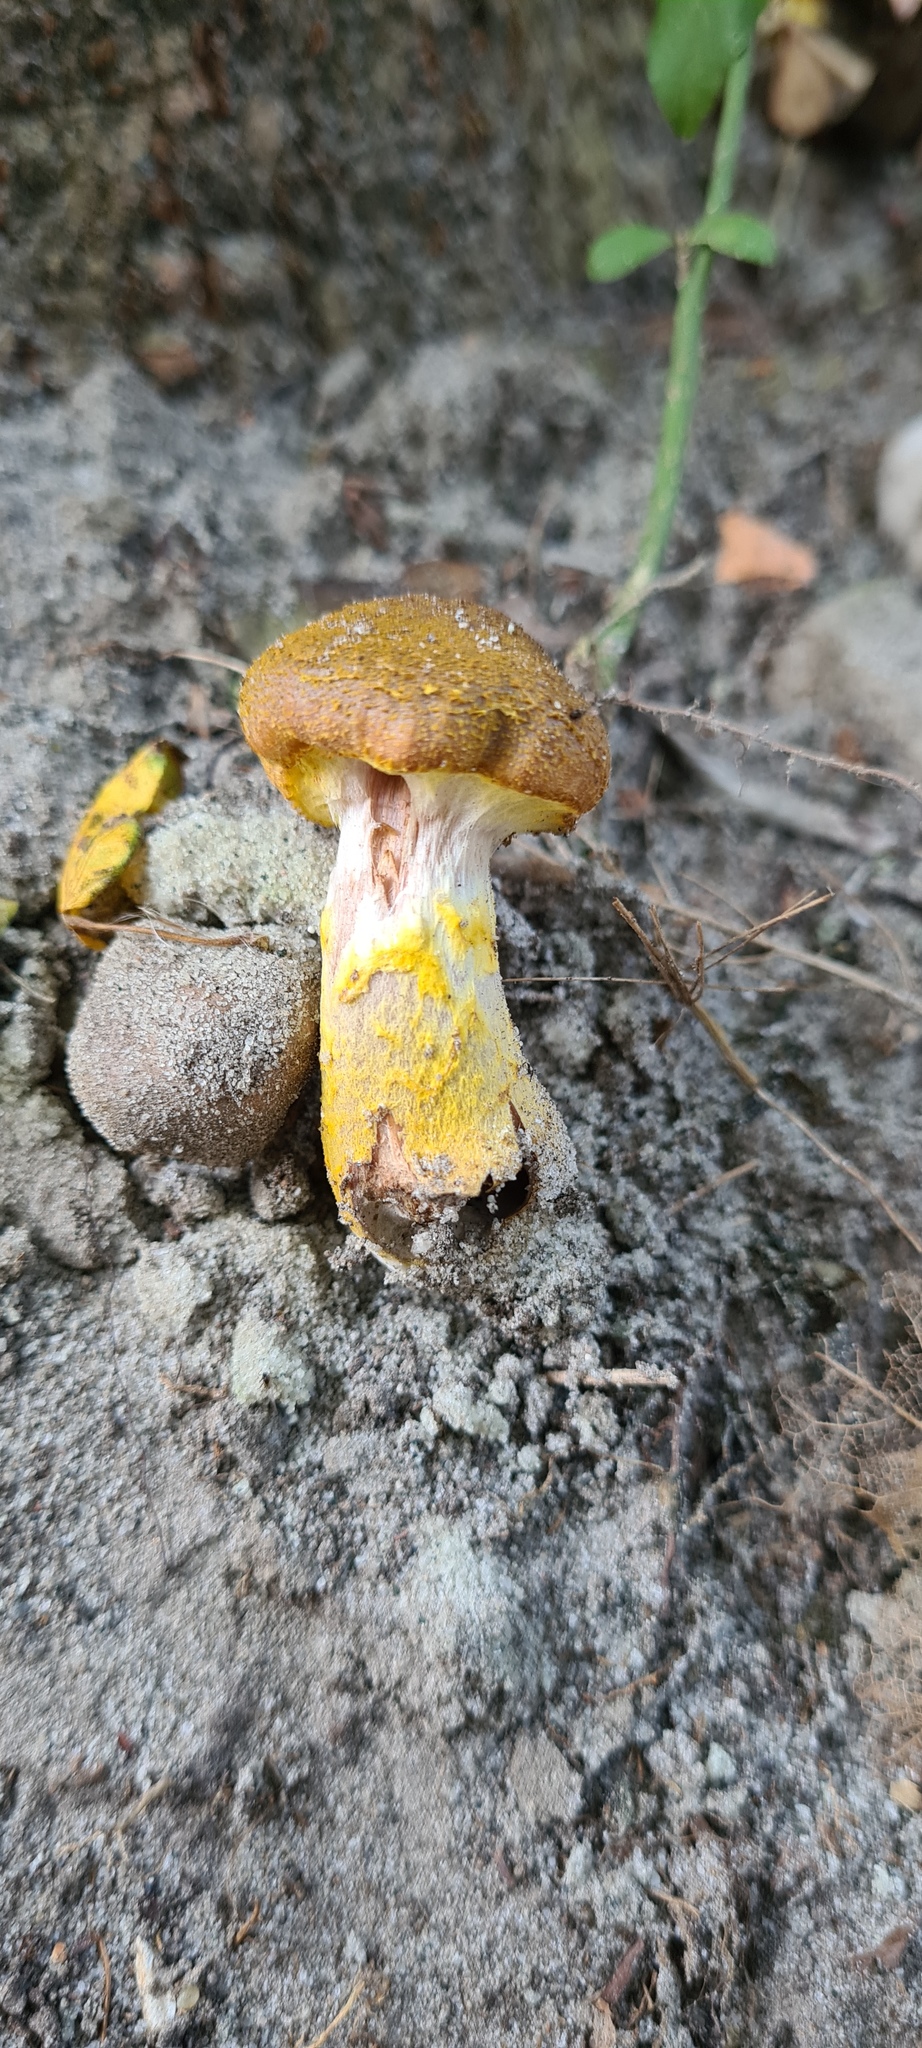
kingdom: Fungi
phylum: Basidiomycota
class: Agaricomycetes
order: Agaricales
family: Physalacriaceae
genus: Armillaria
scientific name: Armillaria gallica
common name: Bulbous honey fungus
